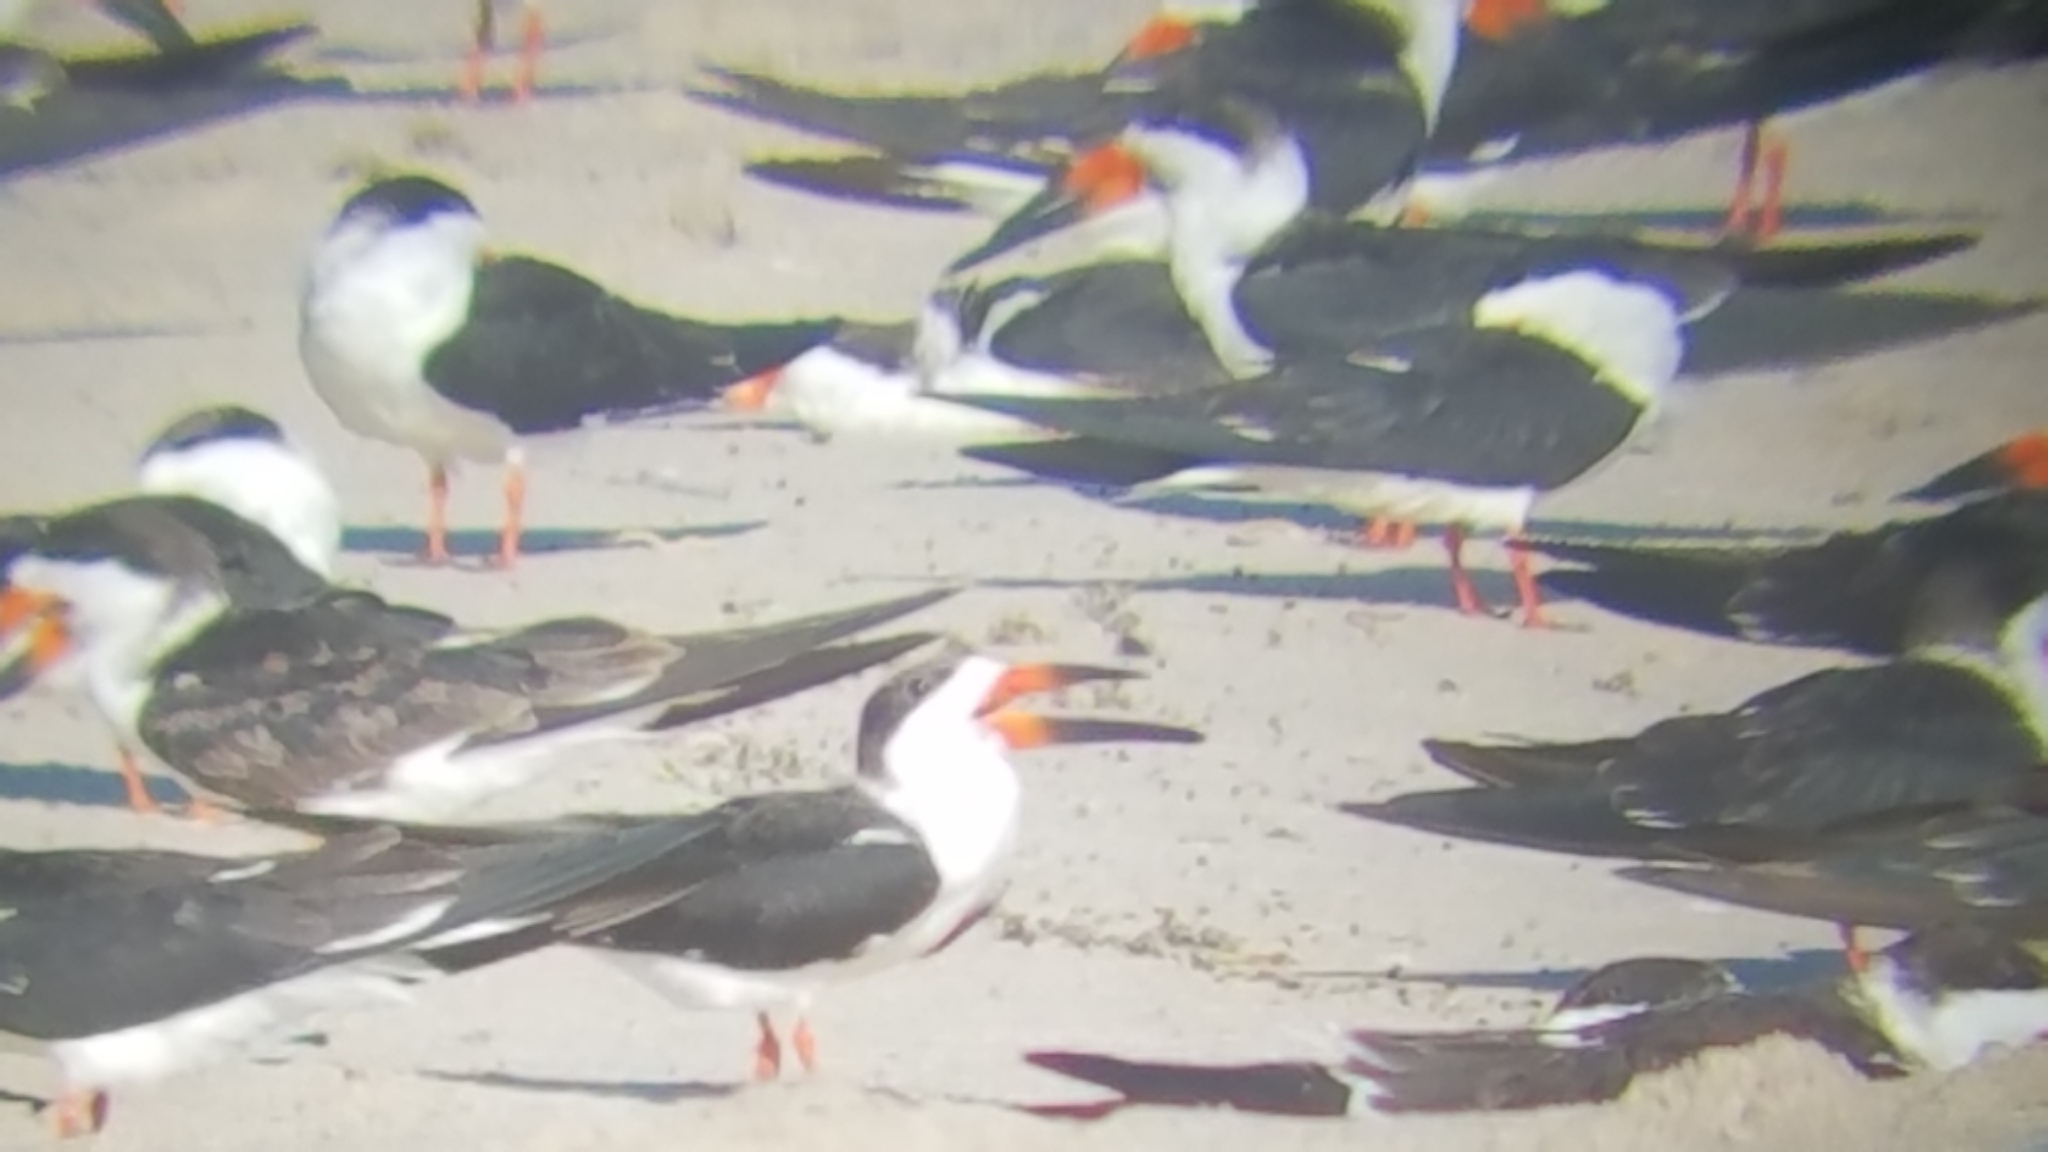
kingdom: Animalia
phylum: Chordata
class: Aves
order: Charadriiformes
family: Laridae
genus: Rynchops
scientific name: Rynchops niger
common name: Black skimmer
